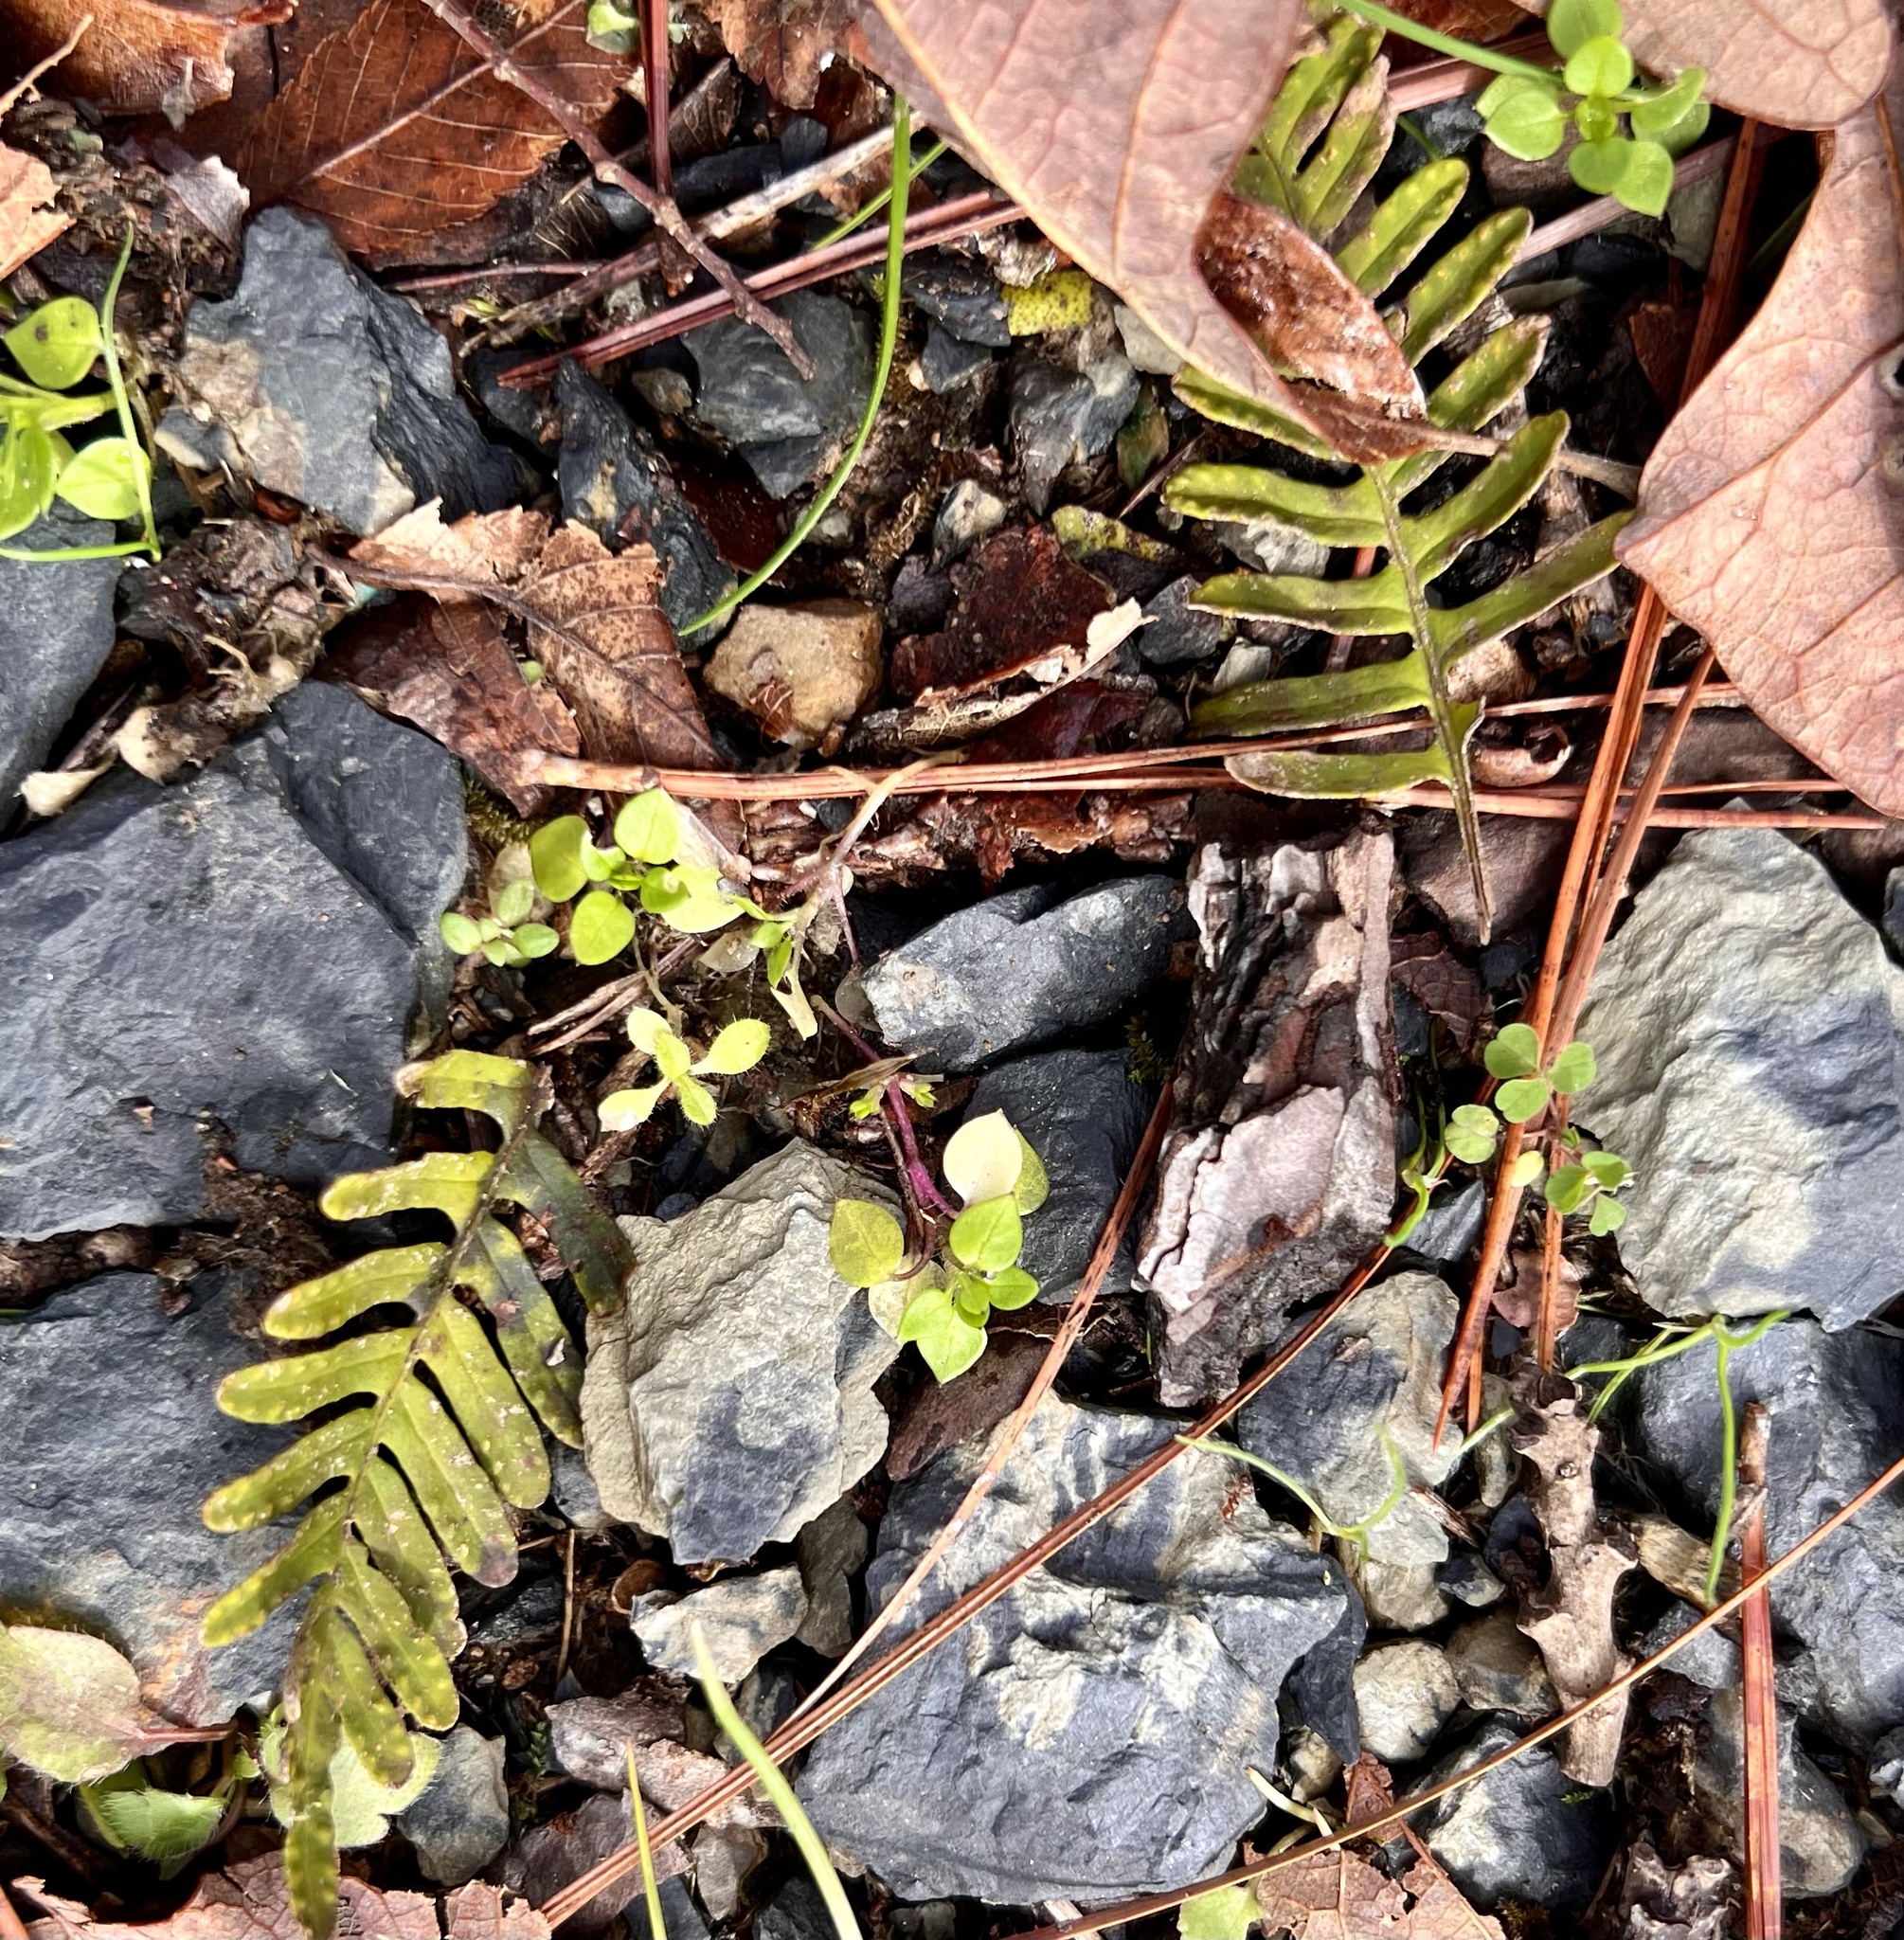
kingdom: Plantae
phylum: Tracheophyta
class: Polypodiopsida
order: Polypodiales
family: Polypodiaceae
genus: Pleopeltis
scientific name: Pleopeltis michauxiana
